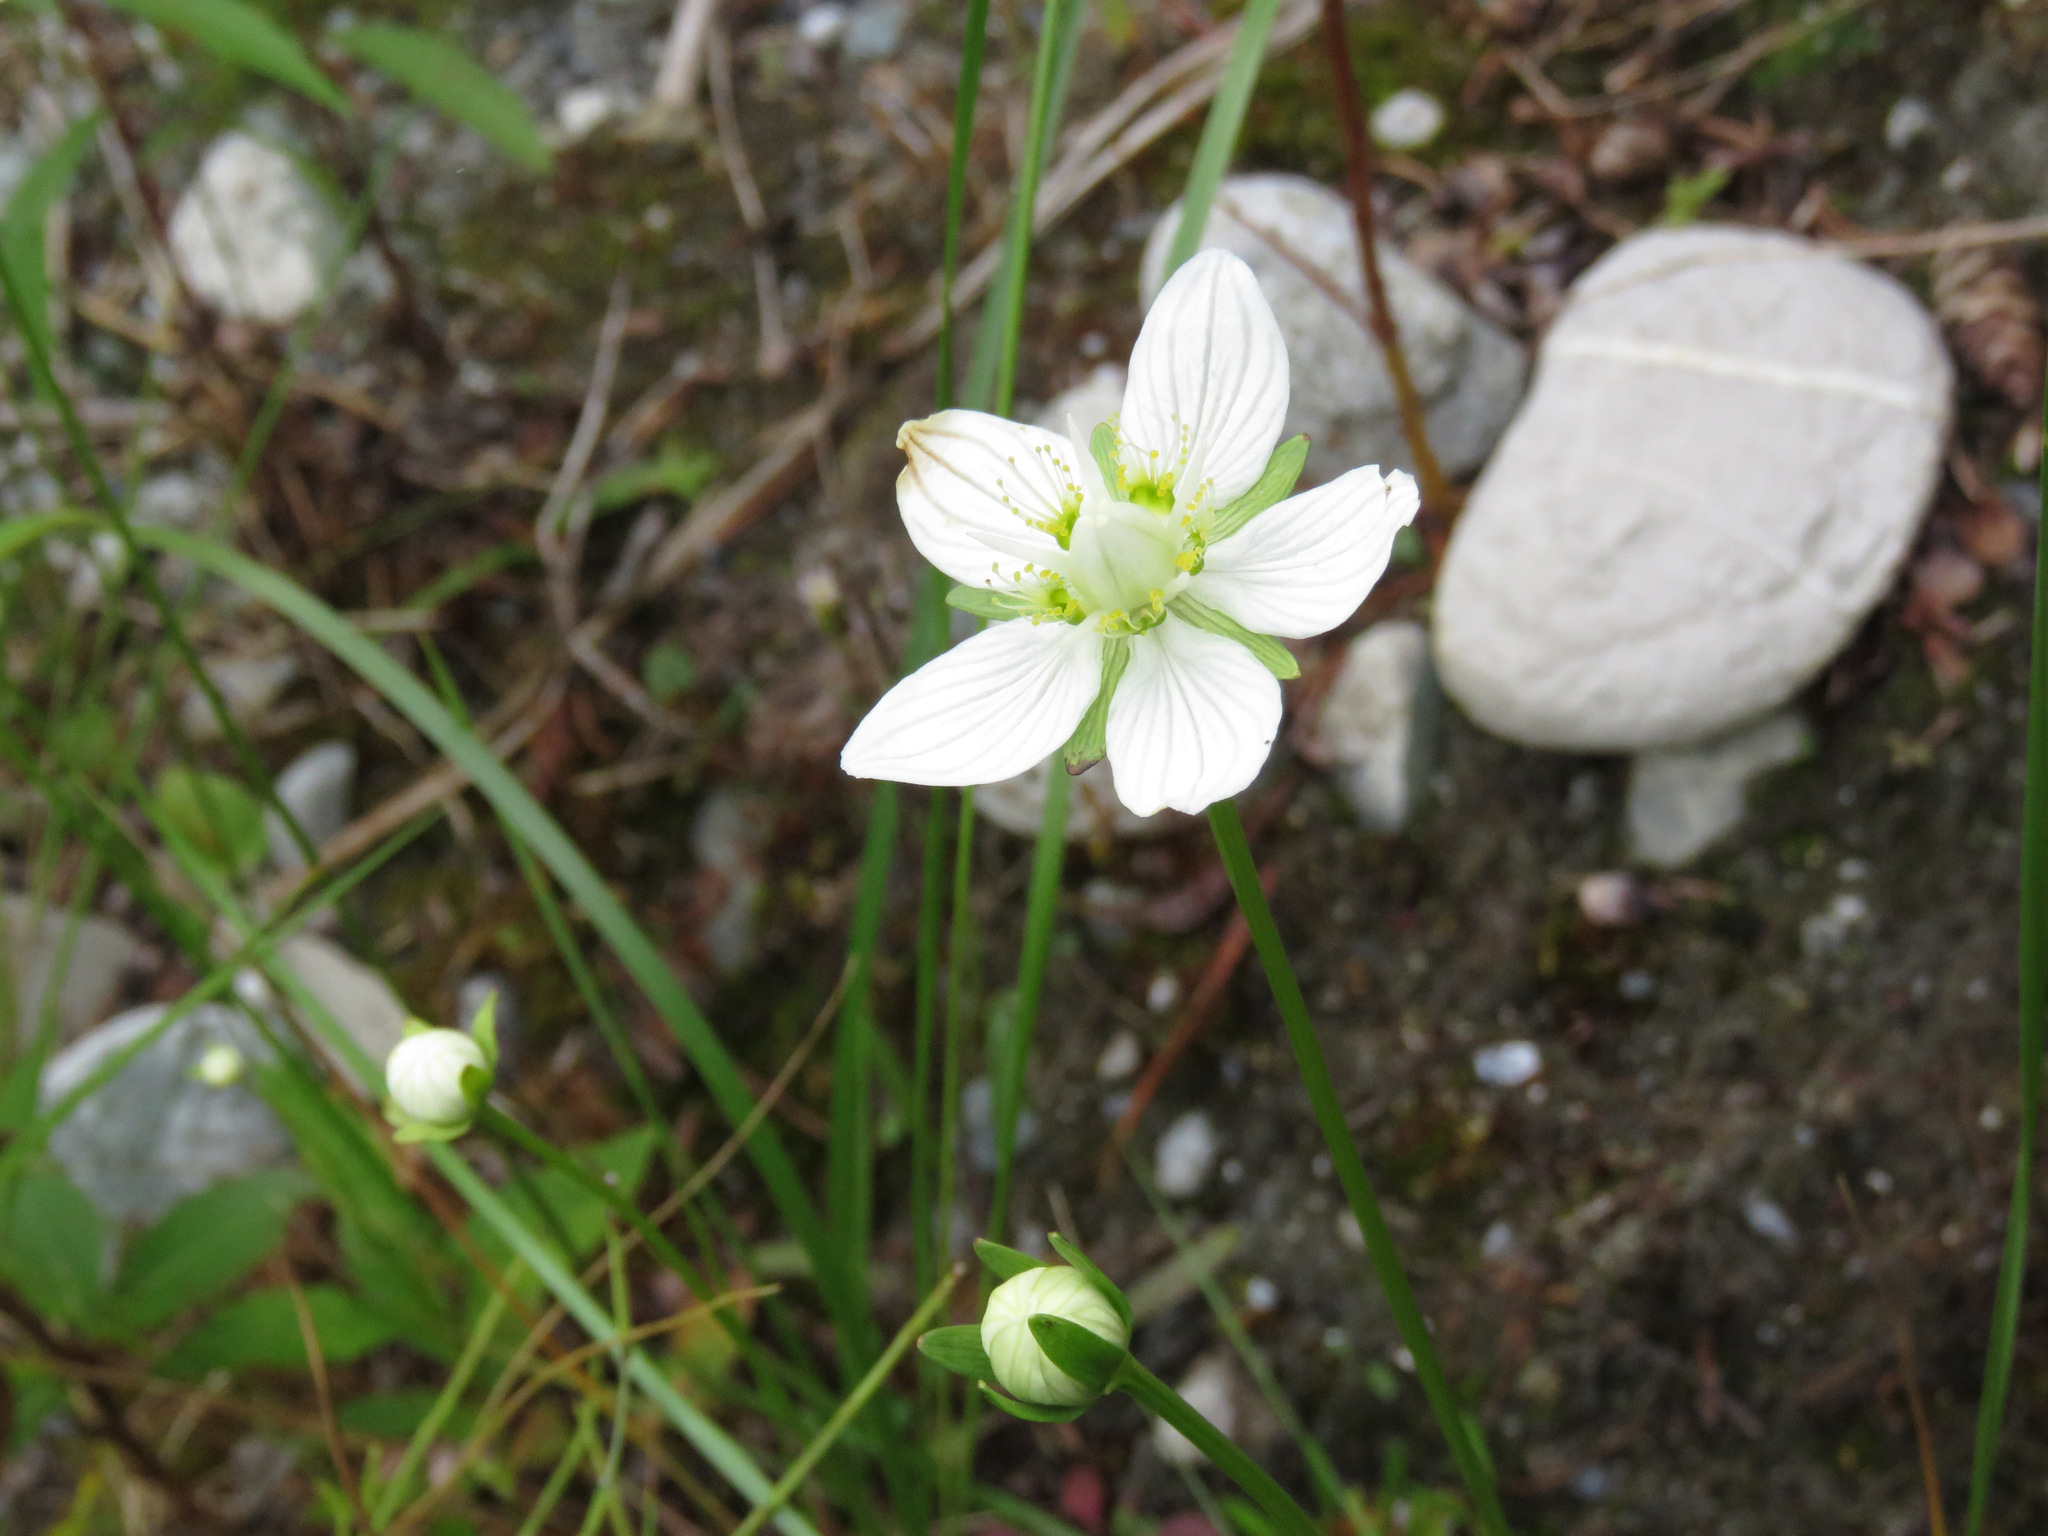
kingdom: Plantae
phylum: Tracheophyta
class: Magnoliopsida
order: Celastrales
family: Parnassiaceae
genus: Parnassia
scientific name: Parnassia palustris
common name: Grass-of-parnassus
